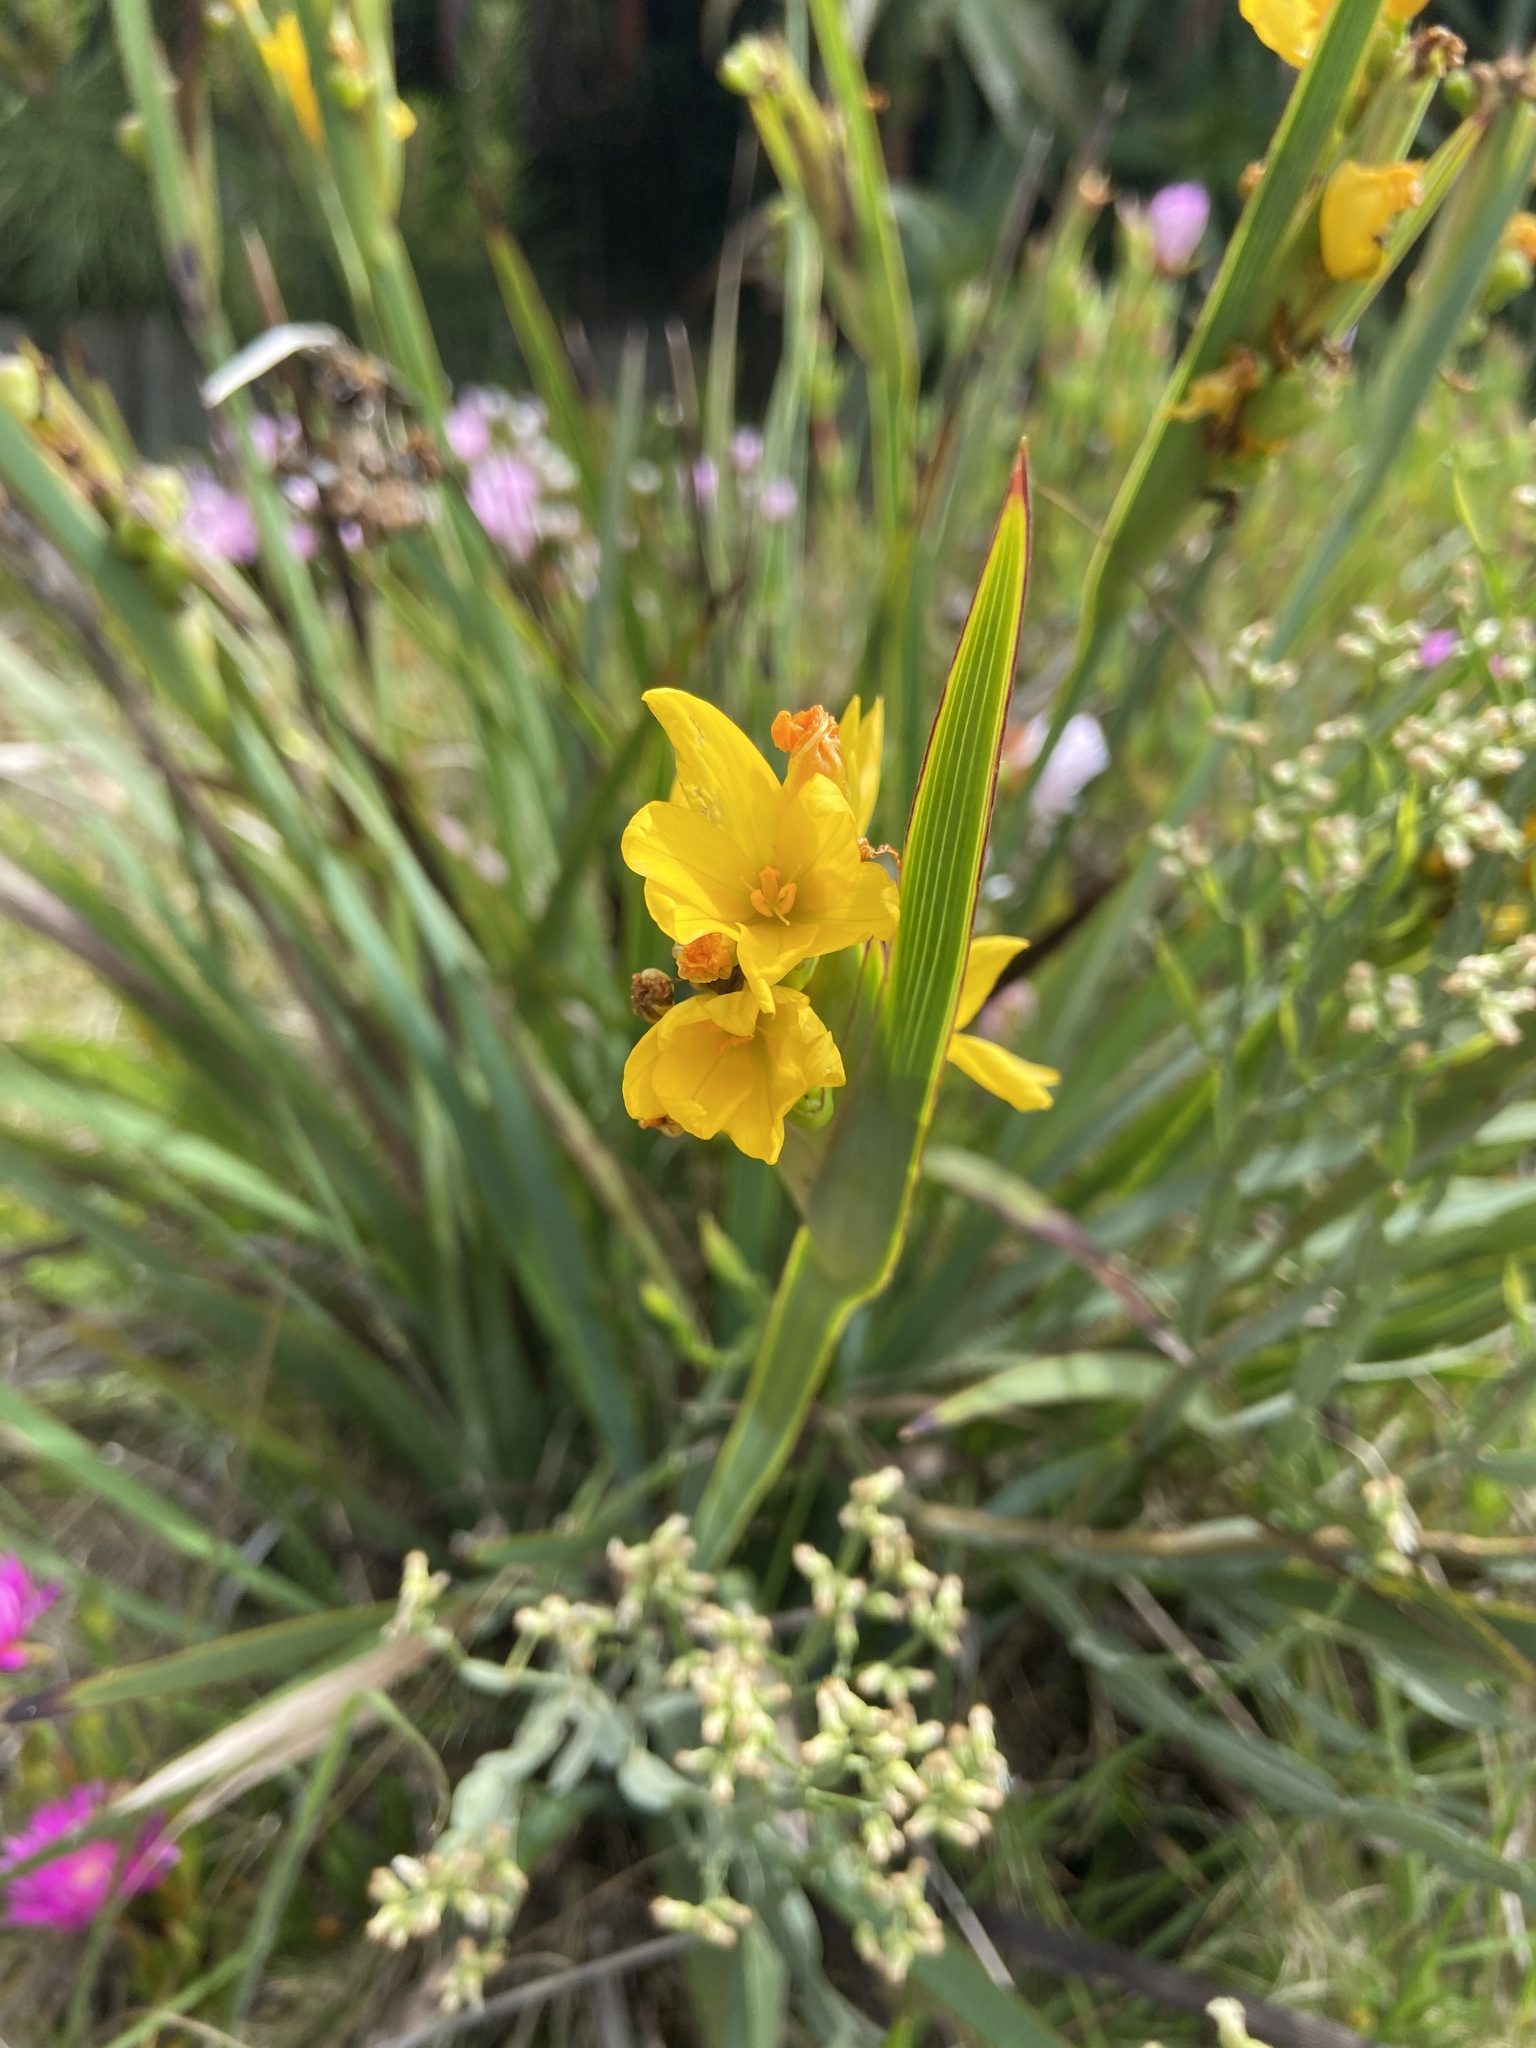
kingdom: Plantae
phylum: Tracheophyta
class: Liliopsida
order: Asparagales
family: Iridaceae
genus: Sisyrinchium
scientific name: Sisyrinchium palmifolium
